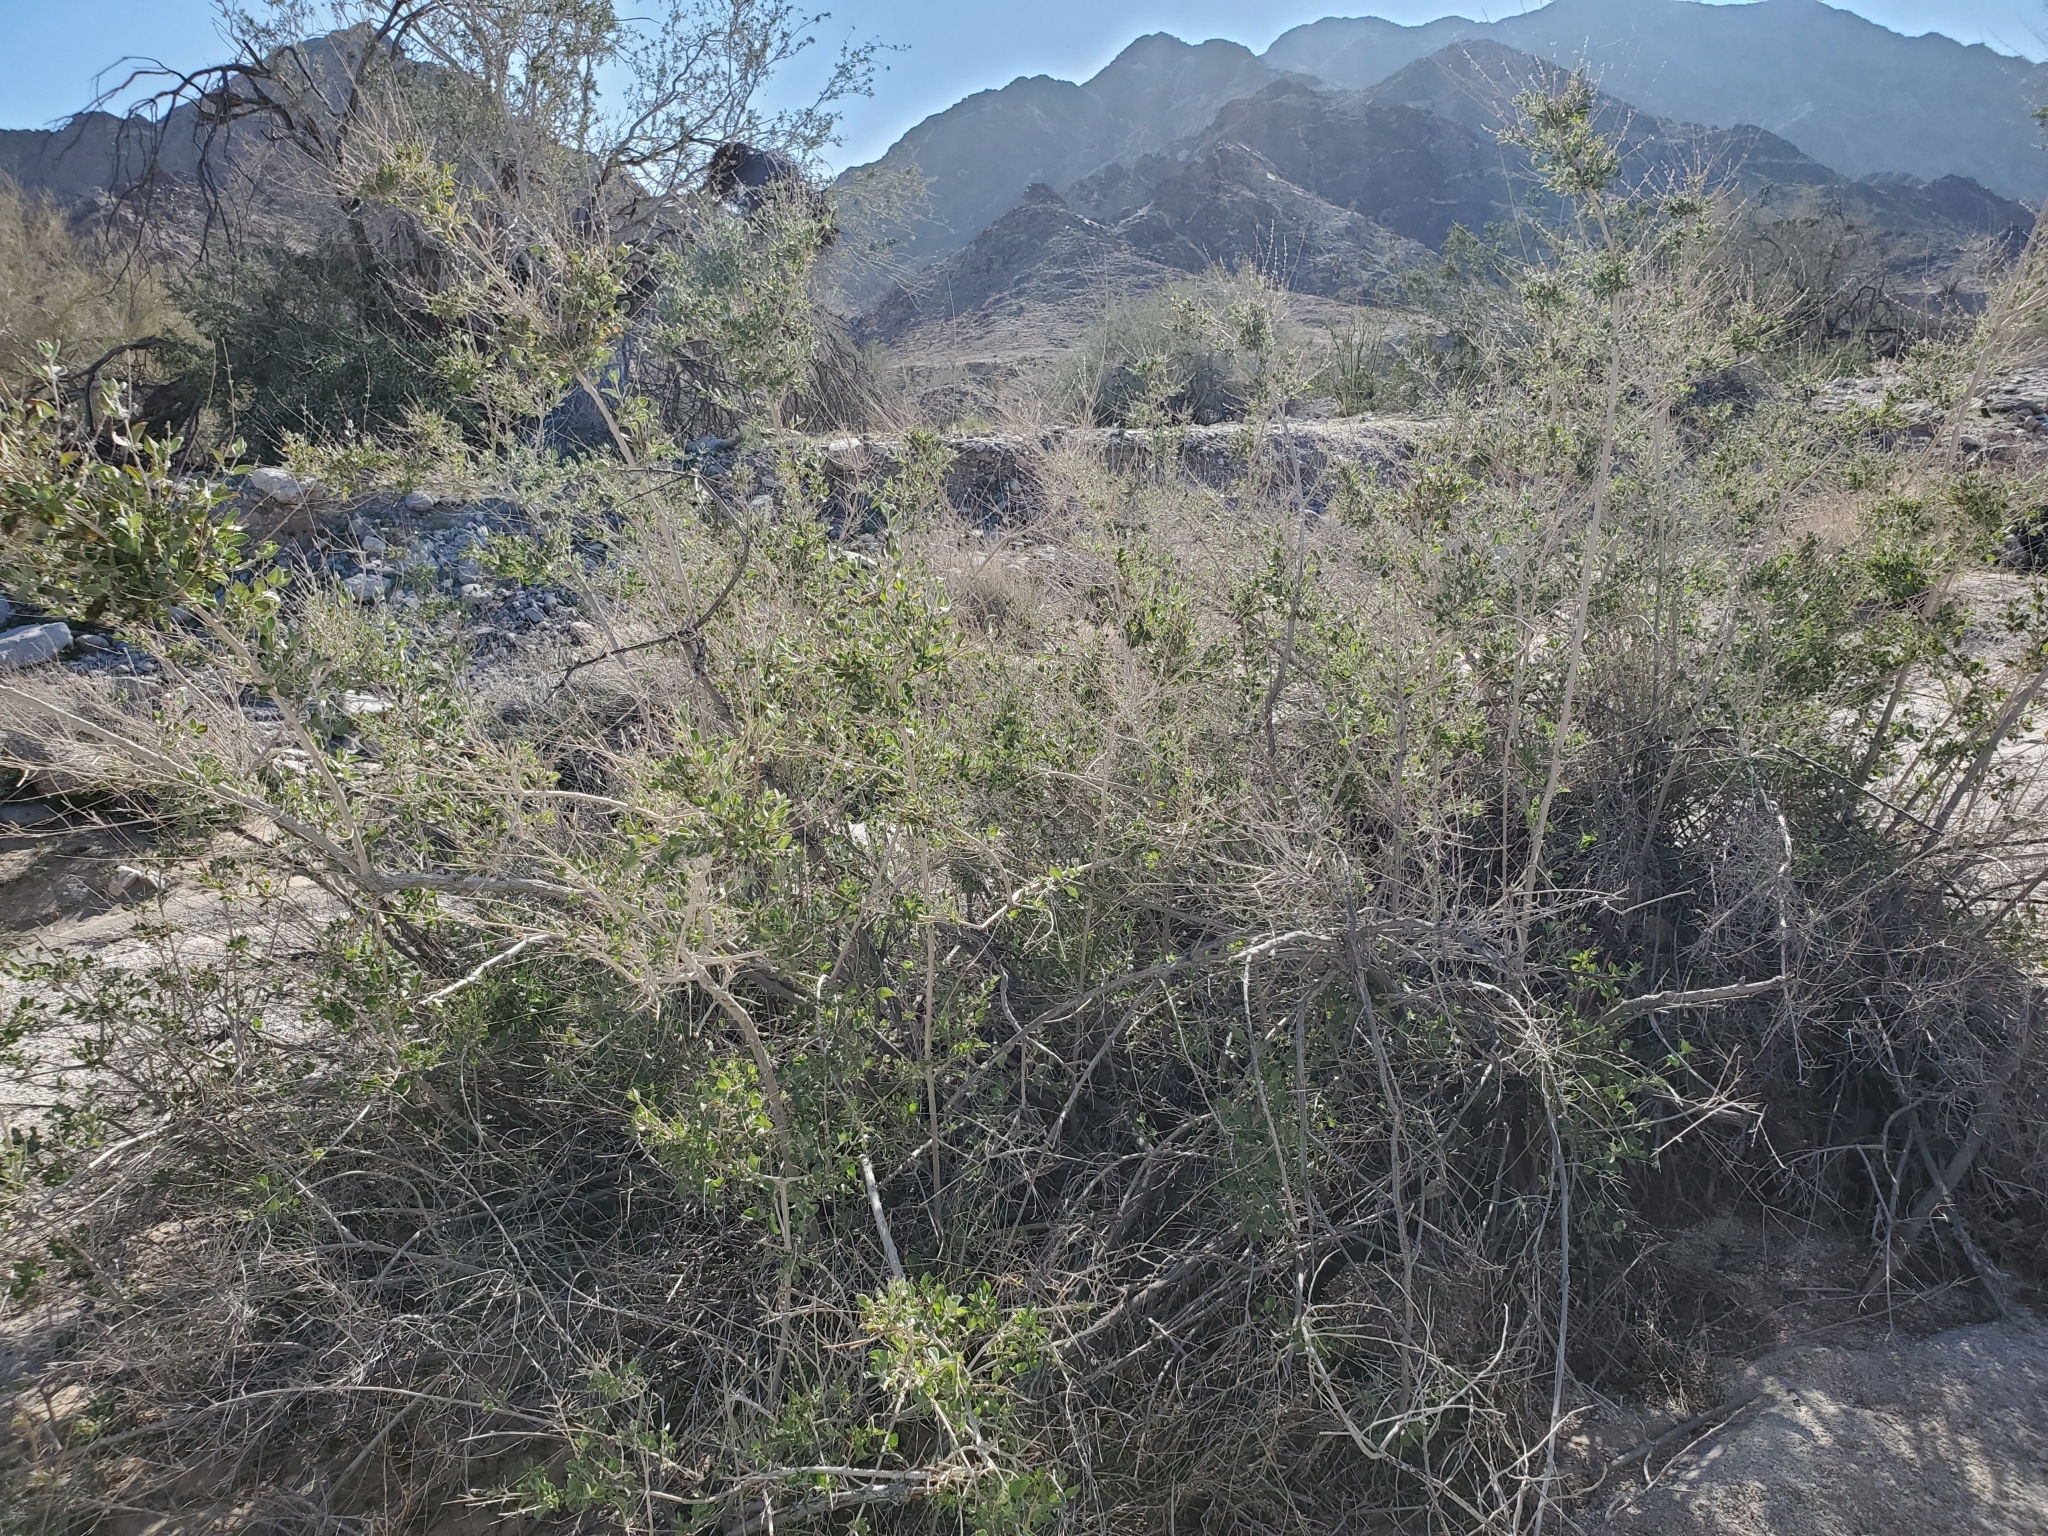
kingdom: Plantae
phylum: Tracheophyta
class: Magnoliopsida
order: Lamiales
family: Lamiaceae
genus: Condea
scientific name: Condea emoryi
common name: Chia
